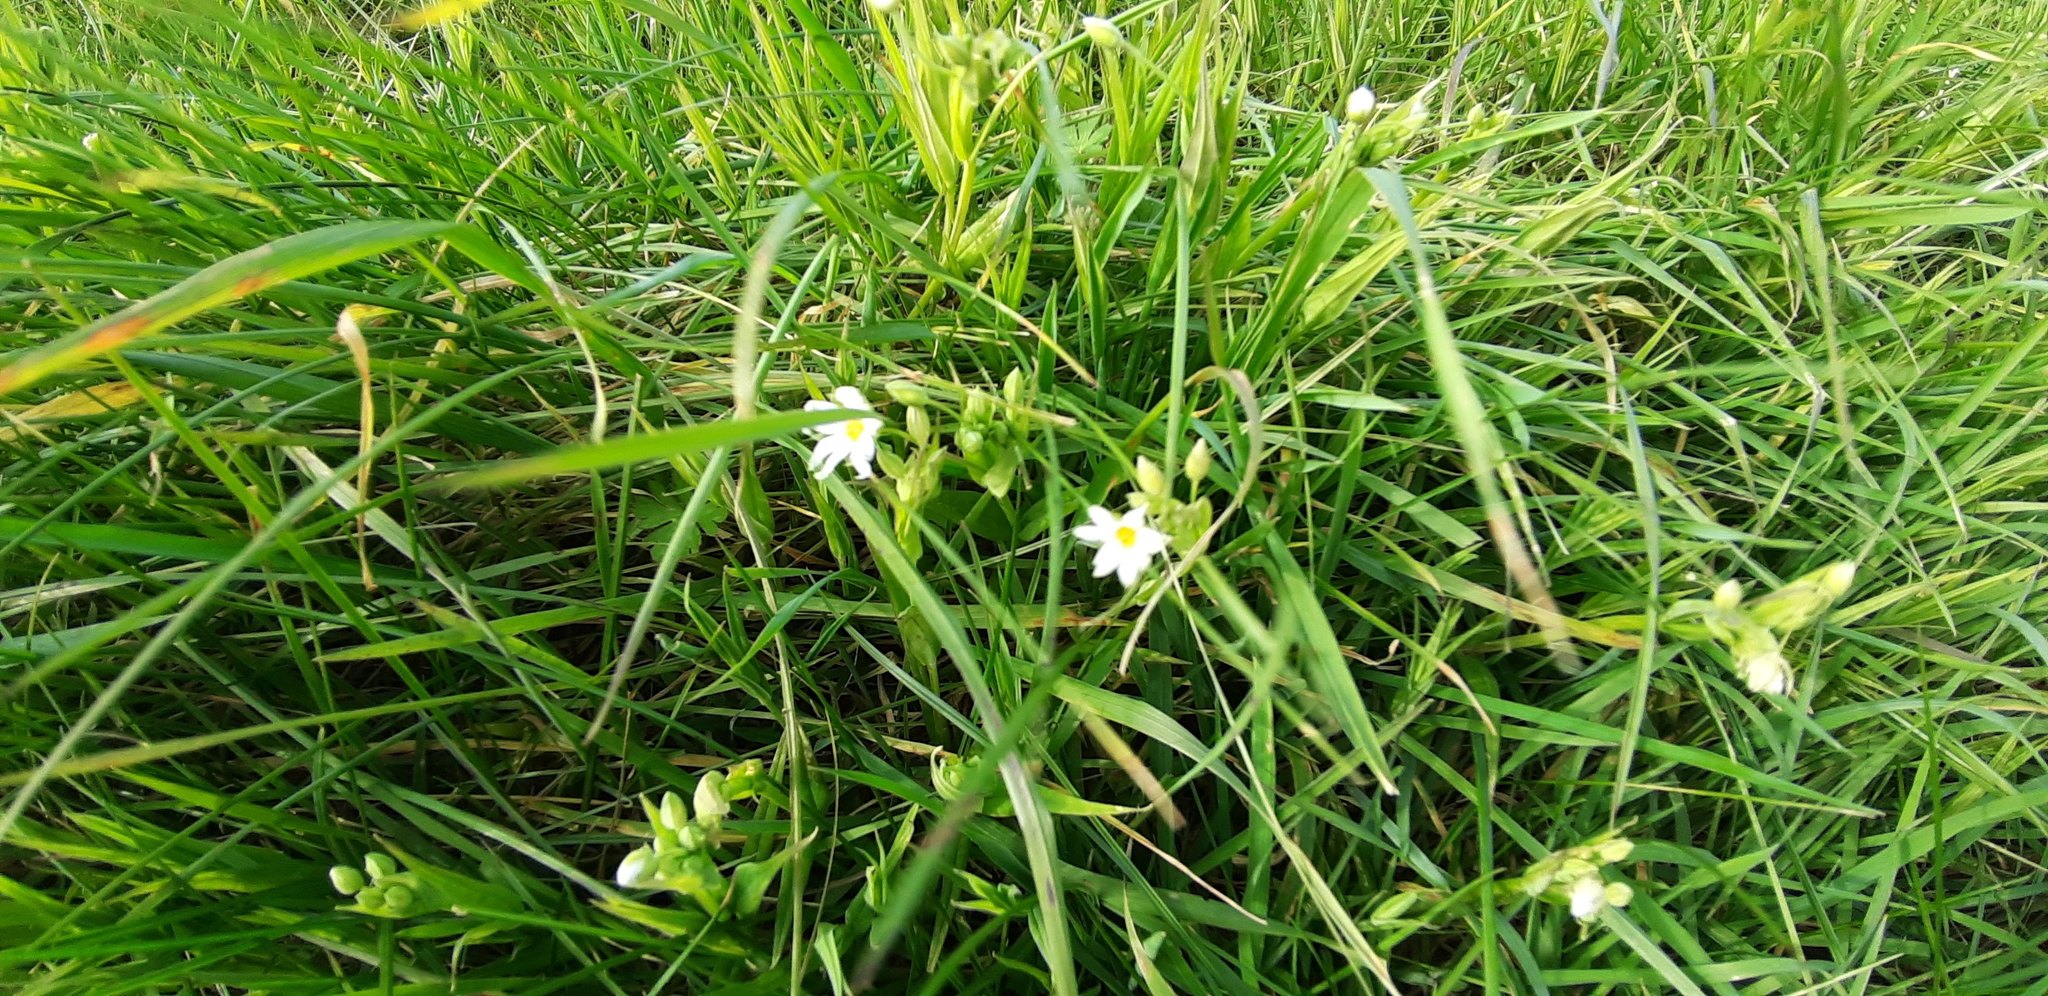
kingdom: Plantae
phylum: Tracheophyta
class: Magnoliopsida
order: Caryophyllales
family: Caryophyllaceae
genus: Rabelera
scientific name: Rabelera holostea
